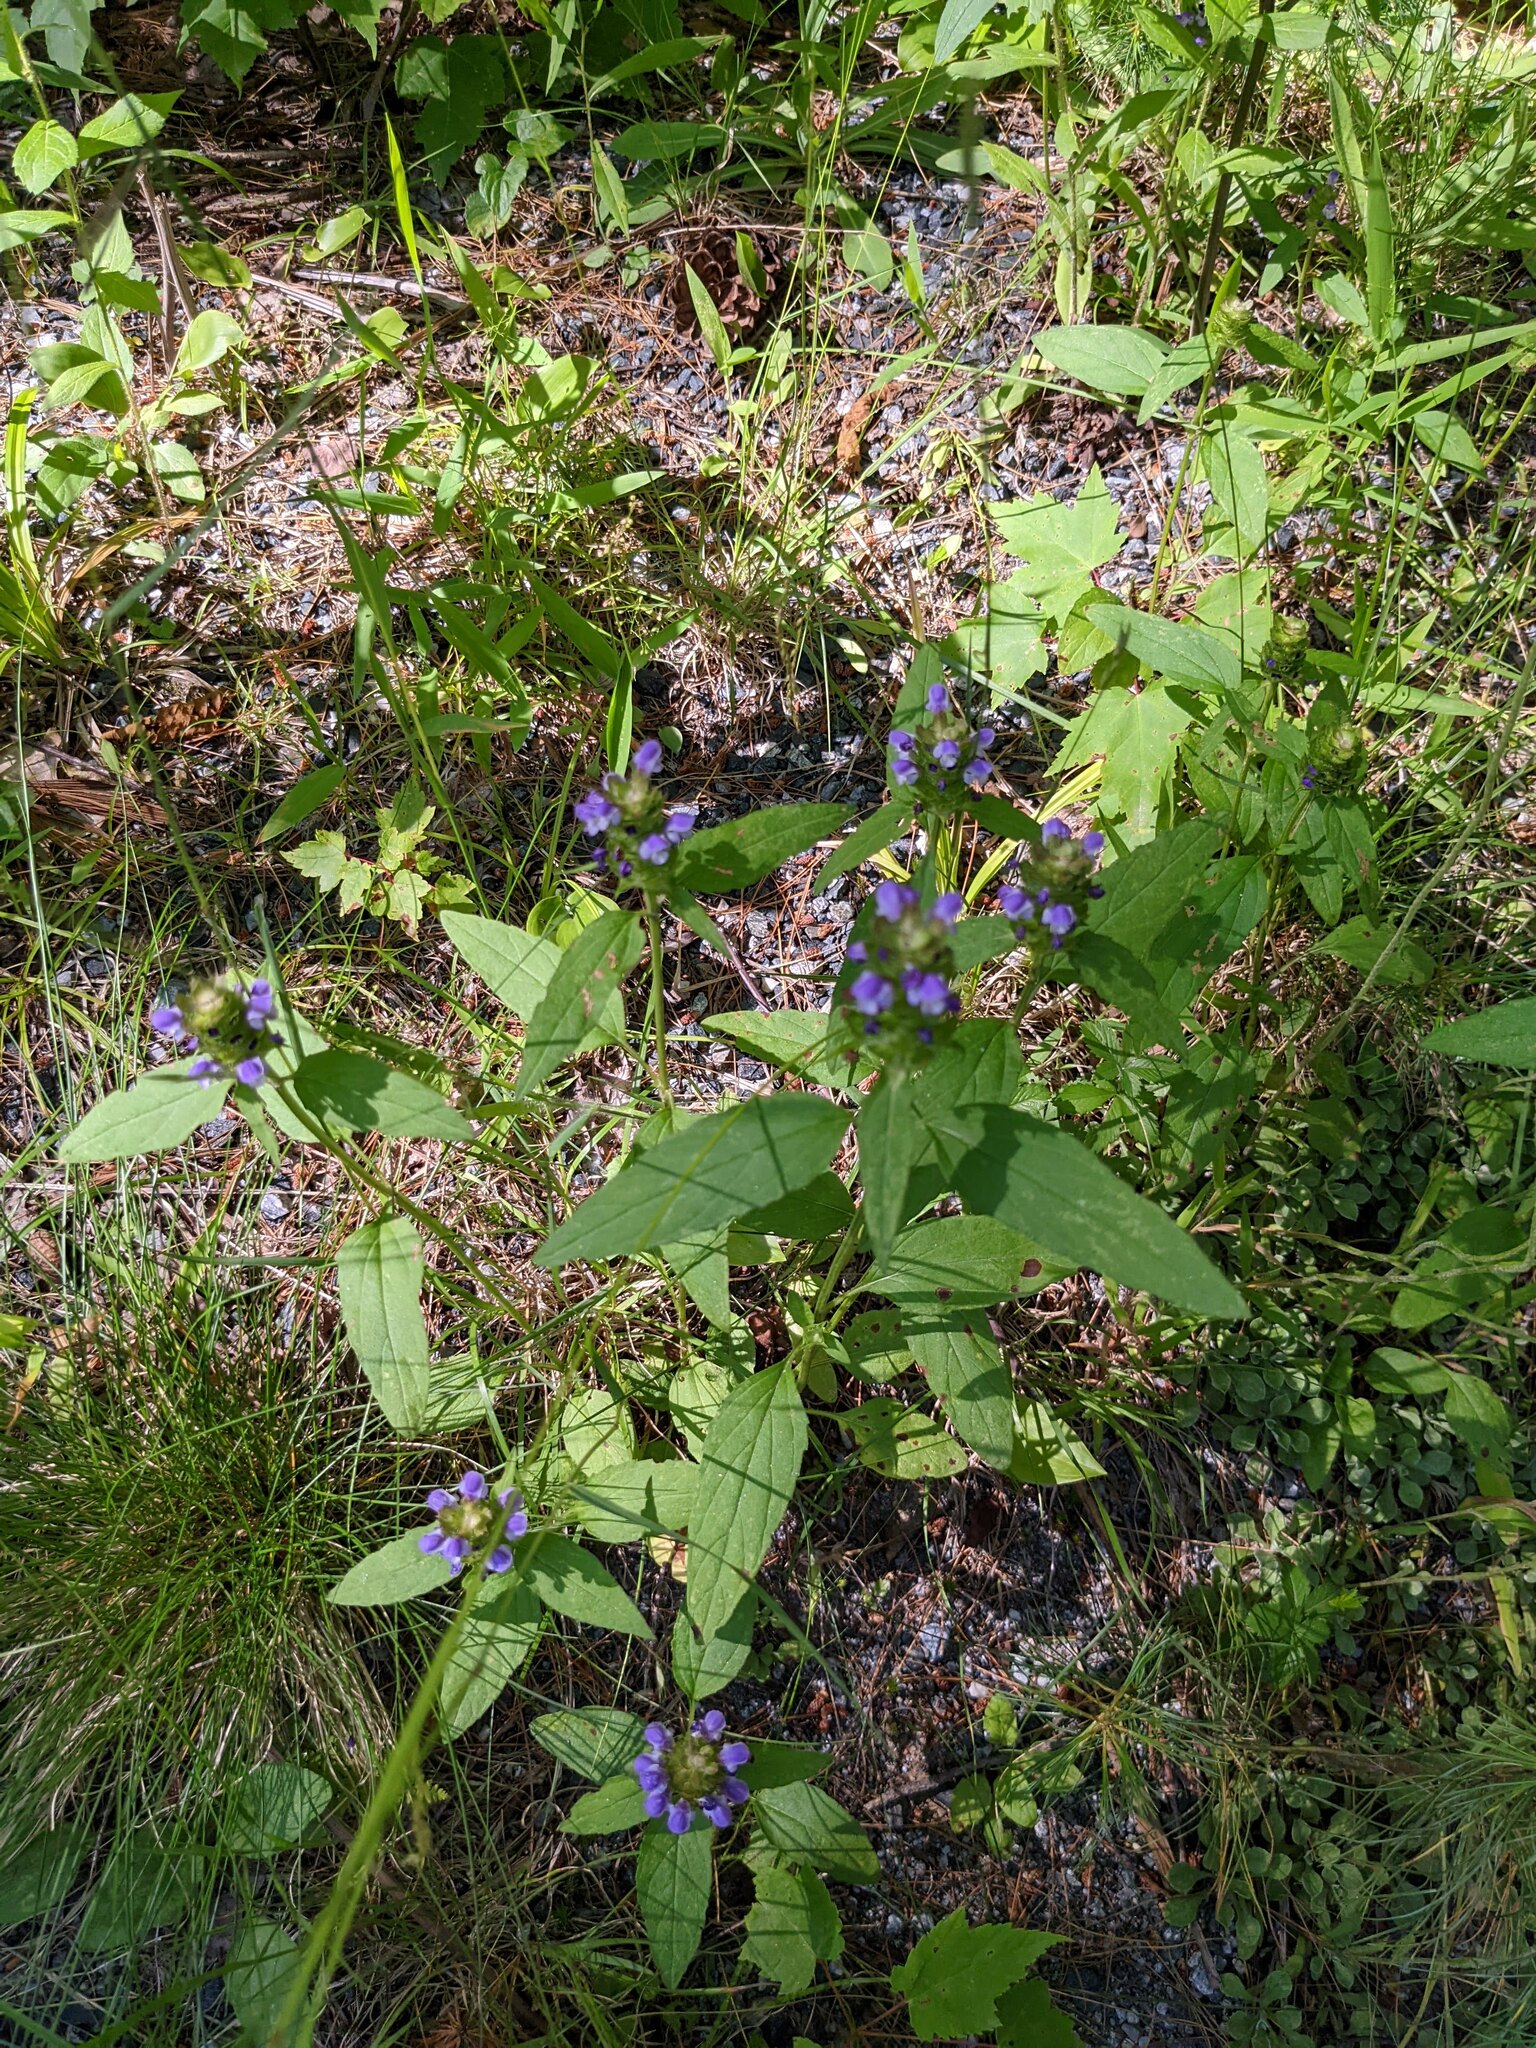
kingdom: Plantae
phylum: Tracheophyta
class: Magnoliopsida
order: Lamiales
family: Lamiaceae
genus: Prunella
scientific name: Prunella vulgaris
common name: Heal-all
